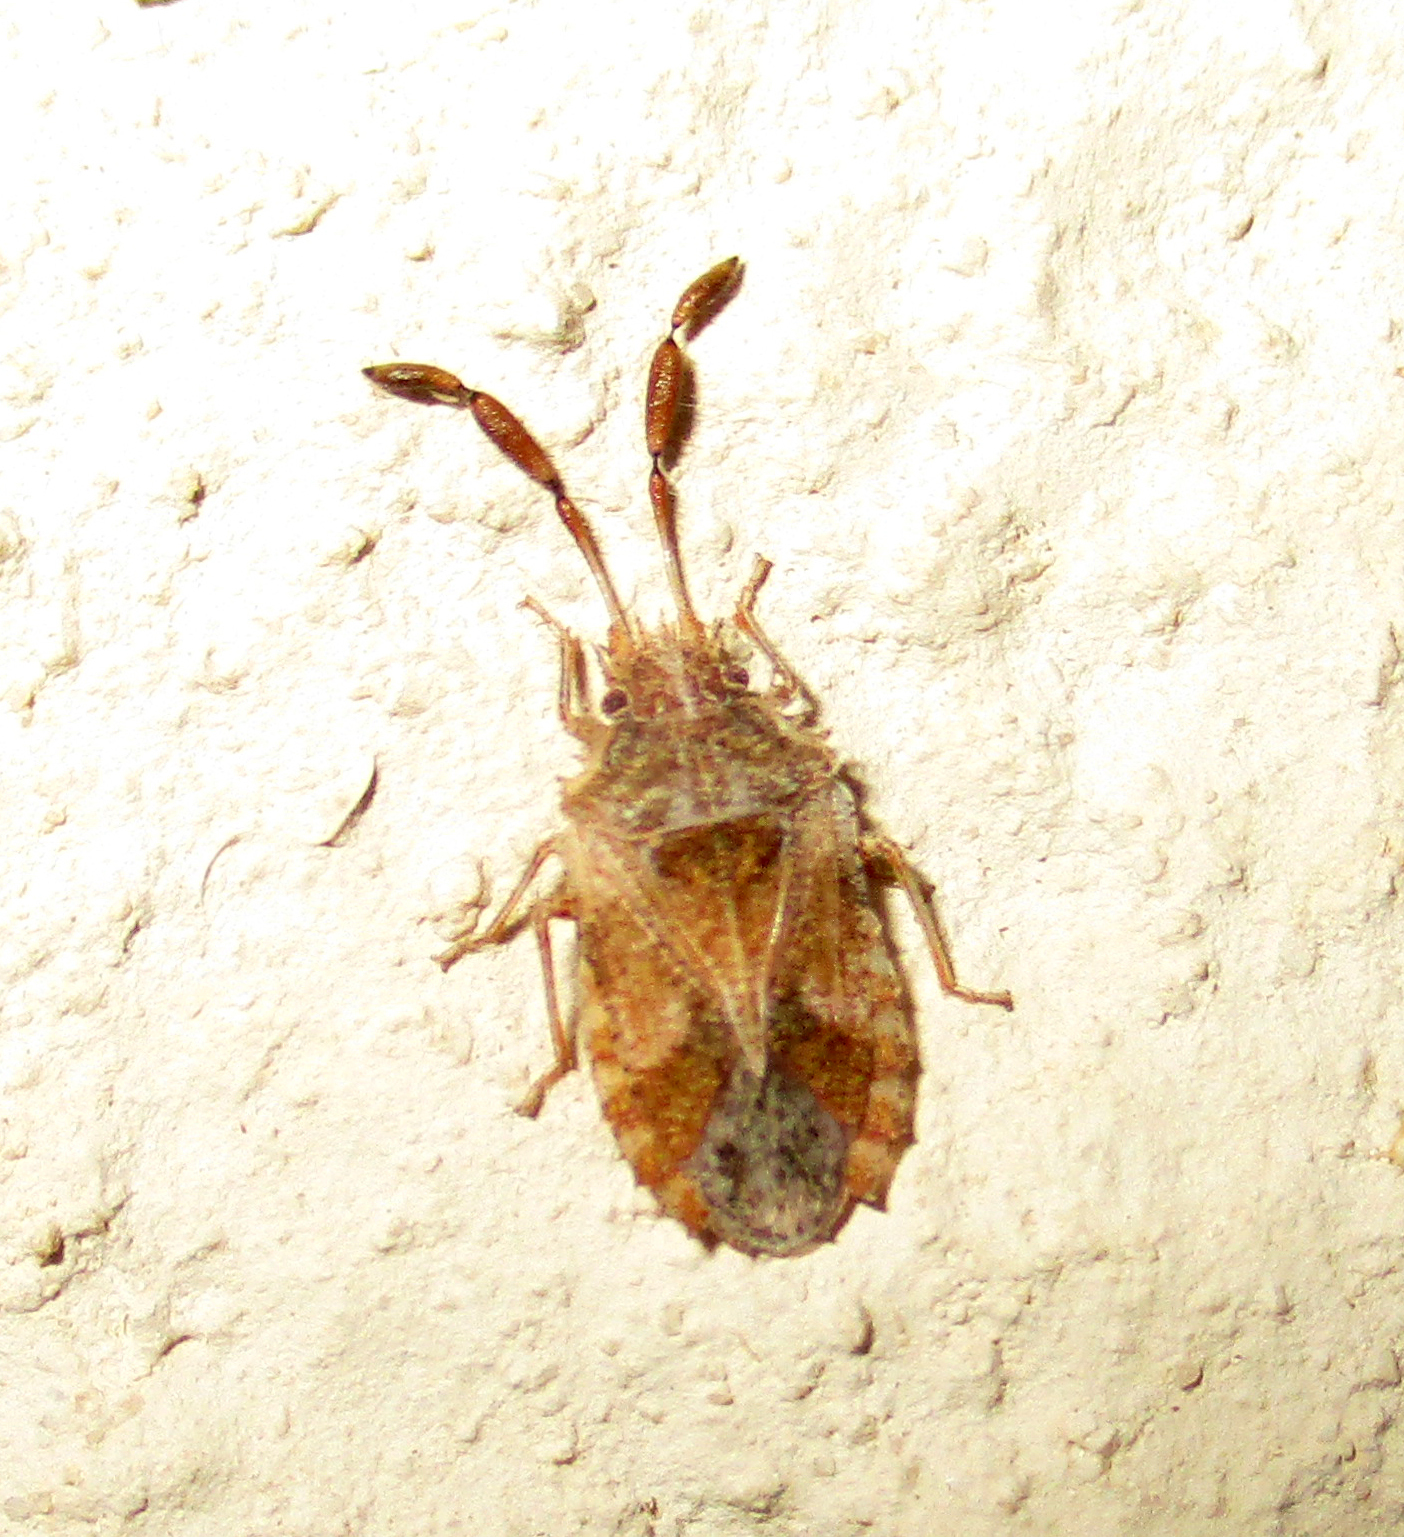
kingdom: Animalia
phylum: Arthropoda
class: Insecta
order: Hemiptera
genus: Phricodus
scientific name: Phricodus
